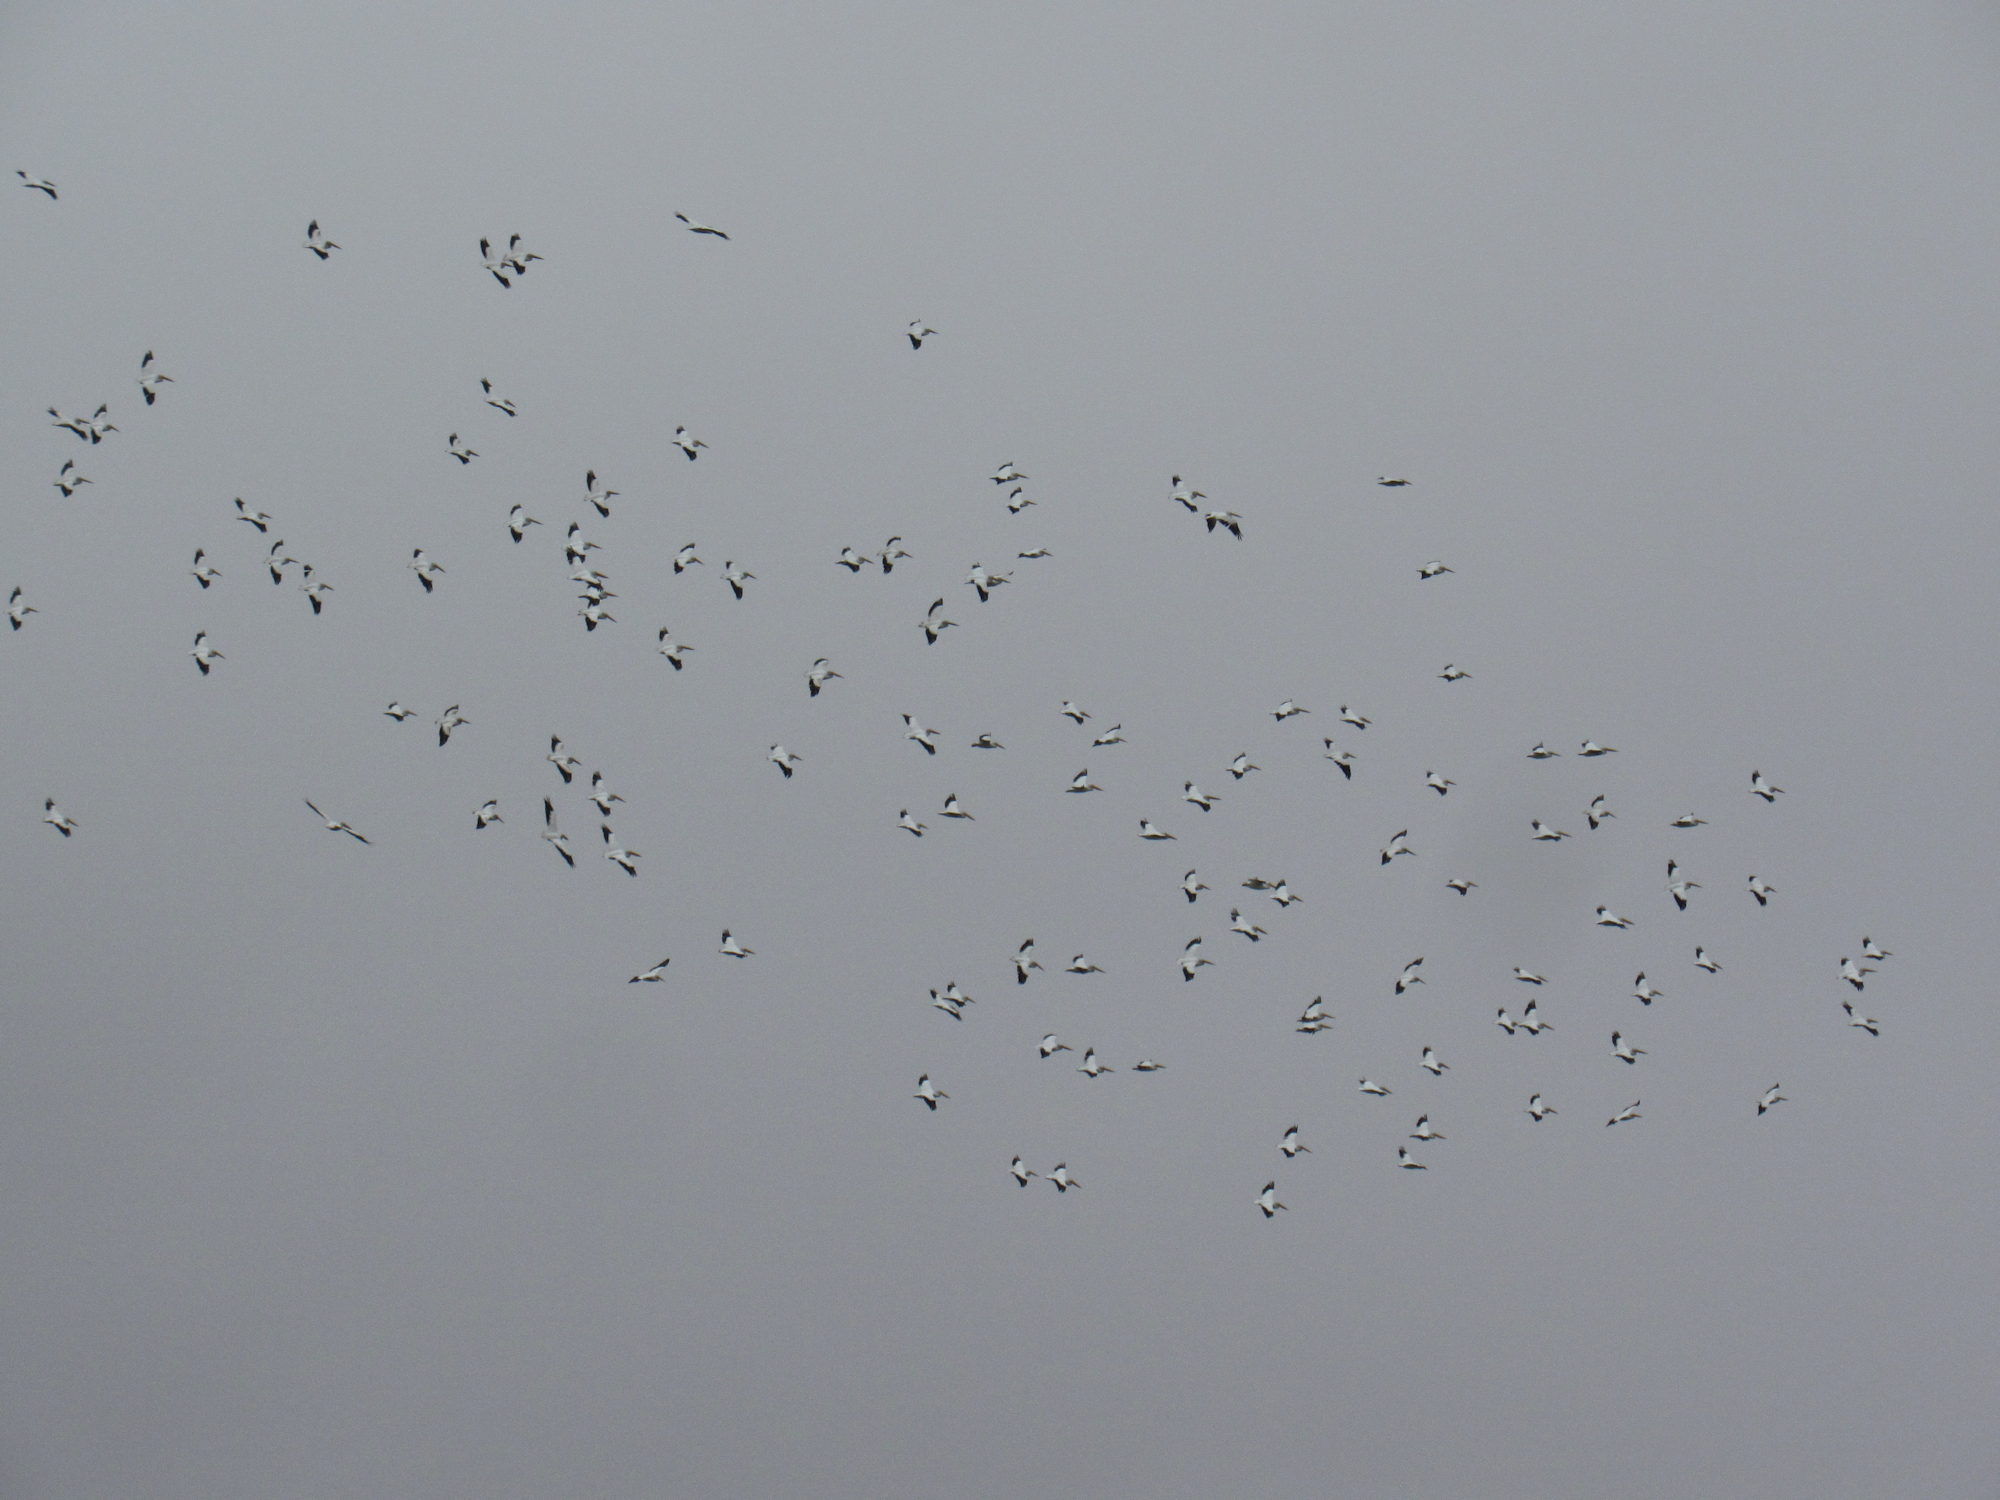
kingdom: Animalia
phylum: Chordata
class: Aves
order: Pelecaniformes
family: Pelecanidae
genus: Pelecanus
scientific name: Pelecanus erythrorhynchos
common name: American white pelican
